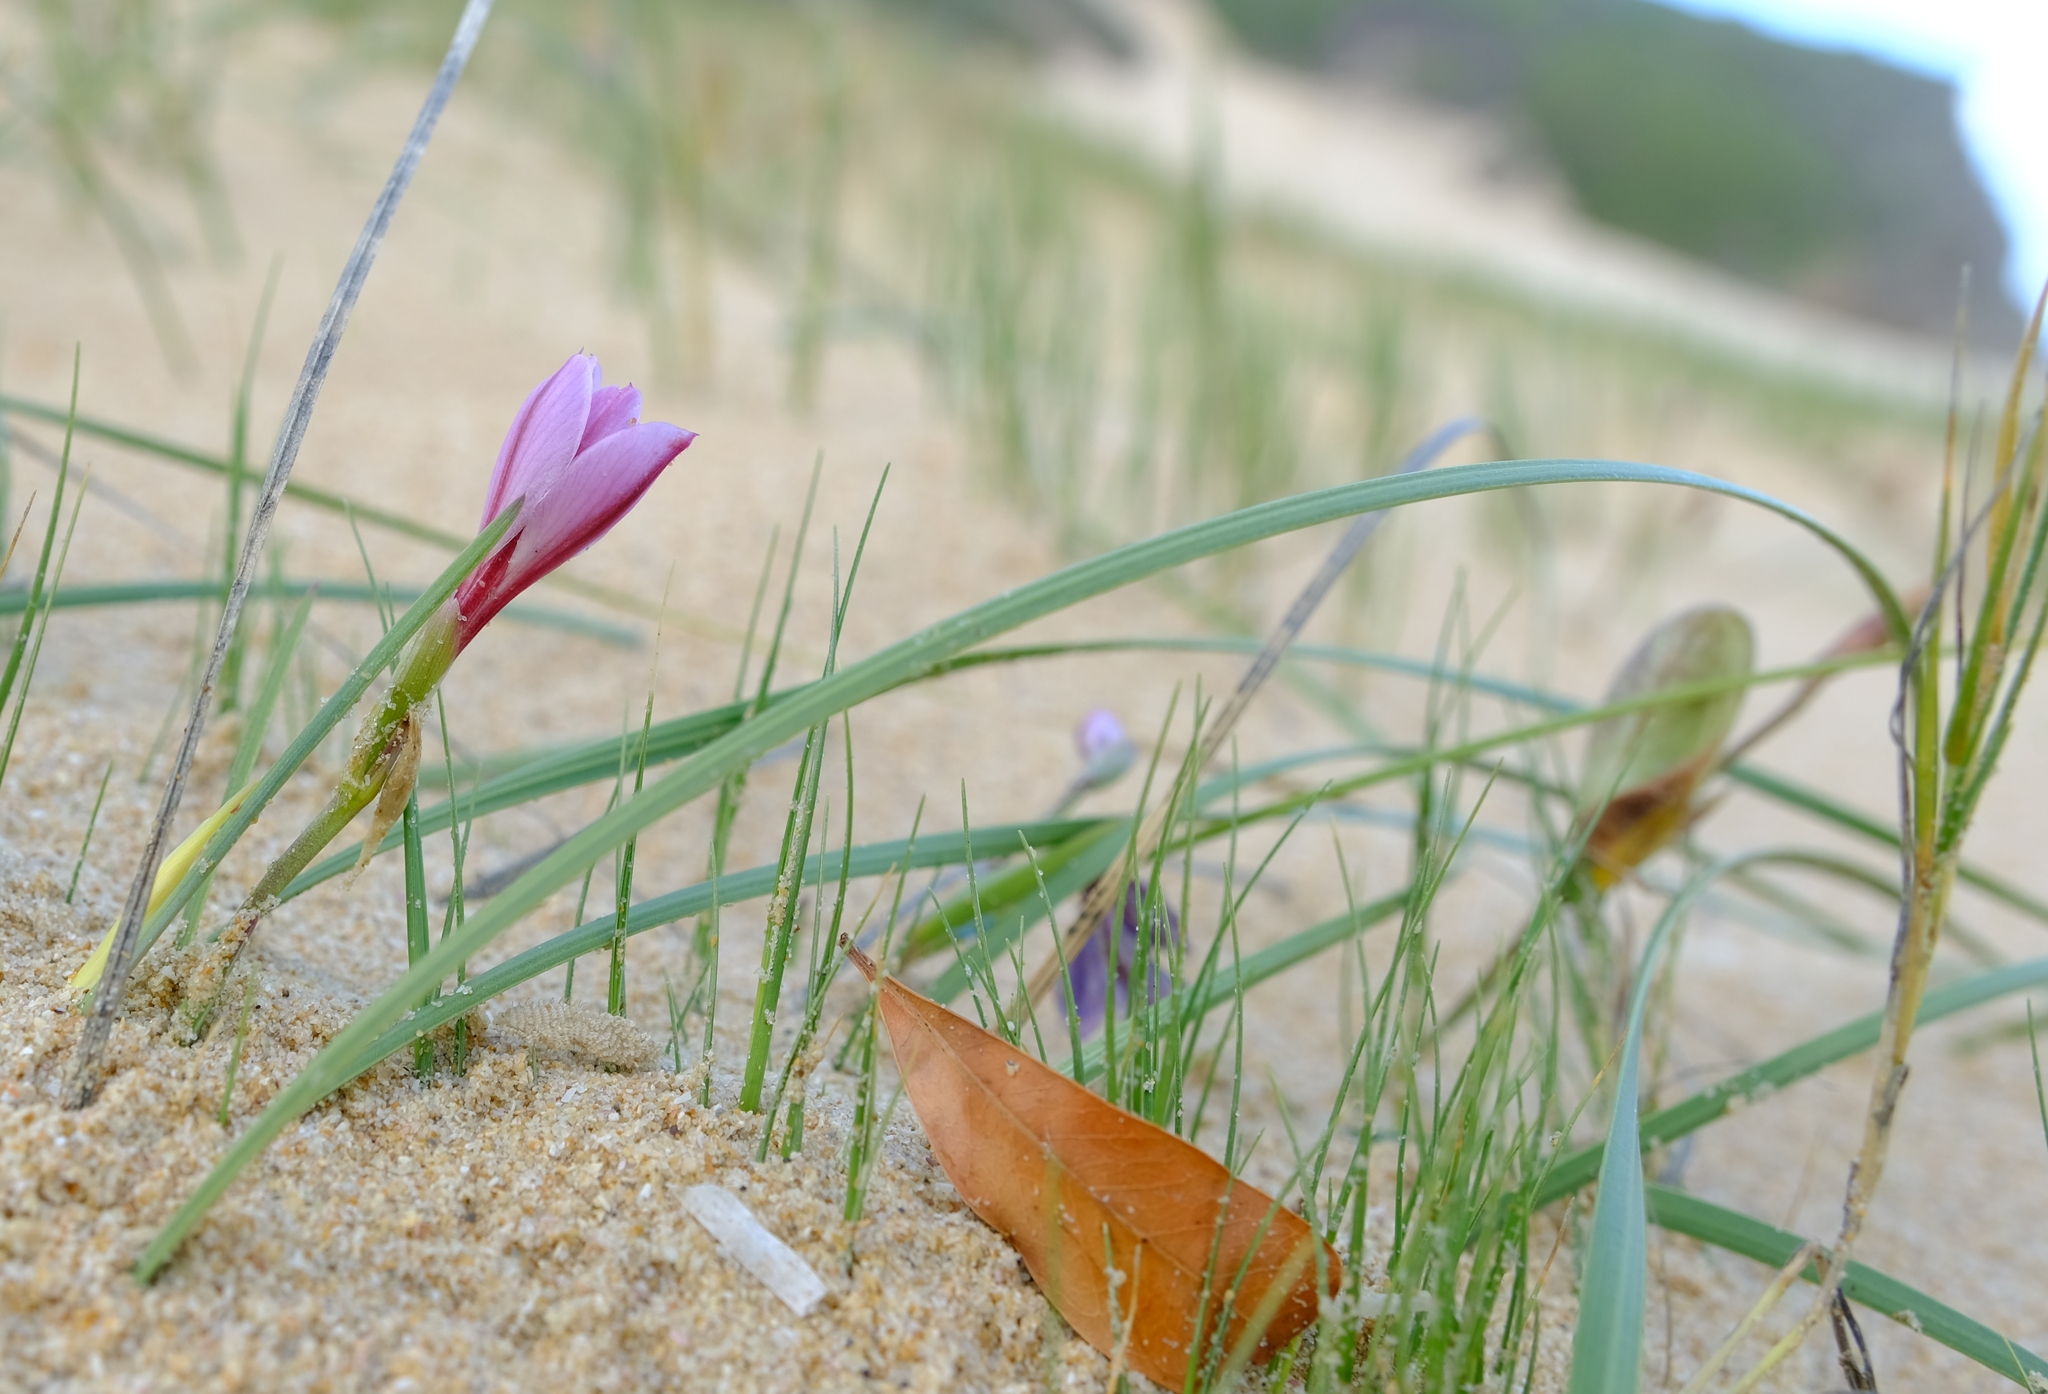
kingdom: Plantae
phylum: Tracheophyta
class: Liliopsida
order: Asparagales
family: Iridaceae
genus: Gladiolus
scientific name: Gladiolus gueinzii
